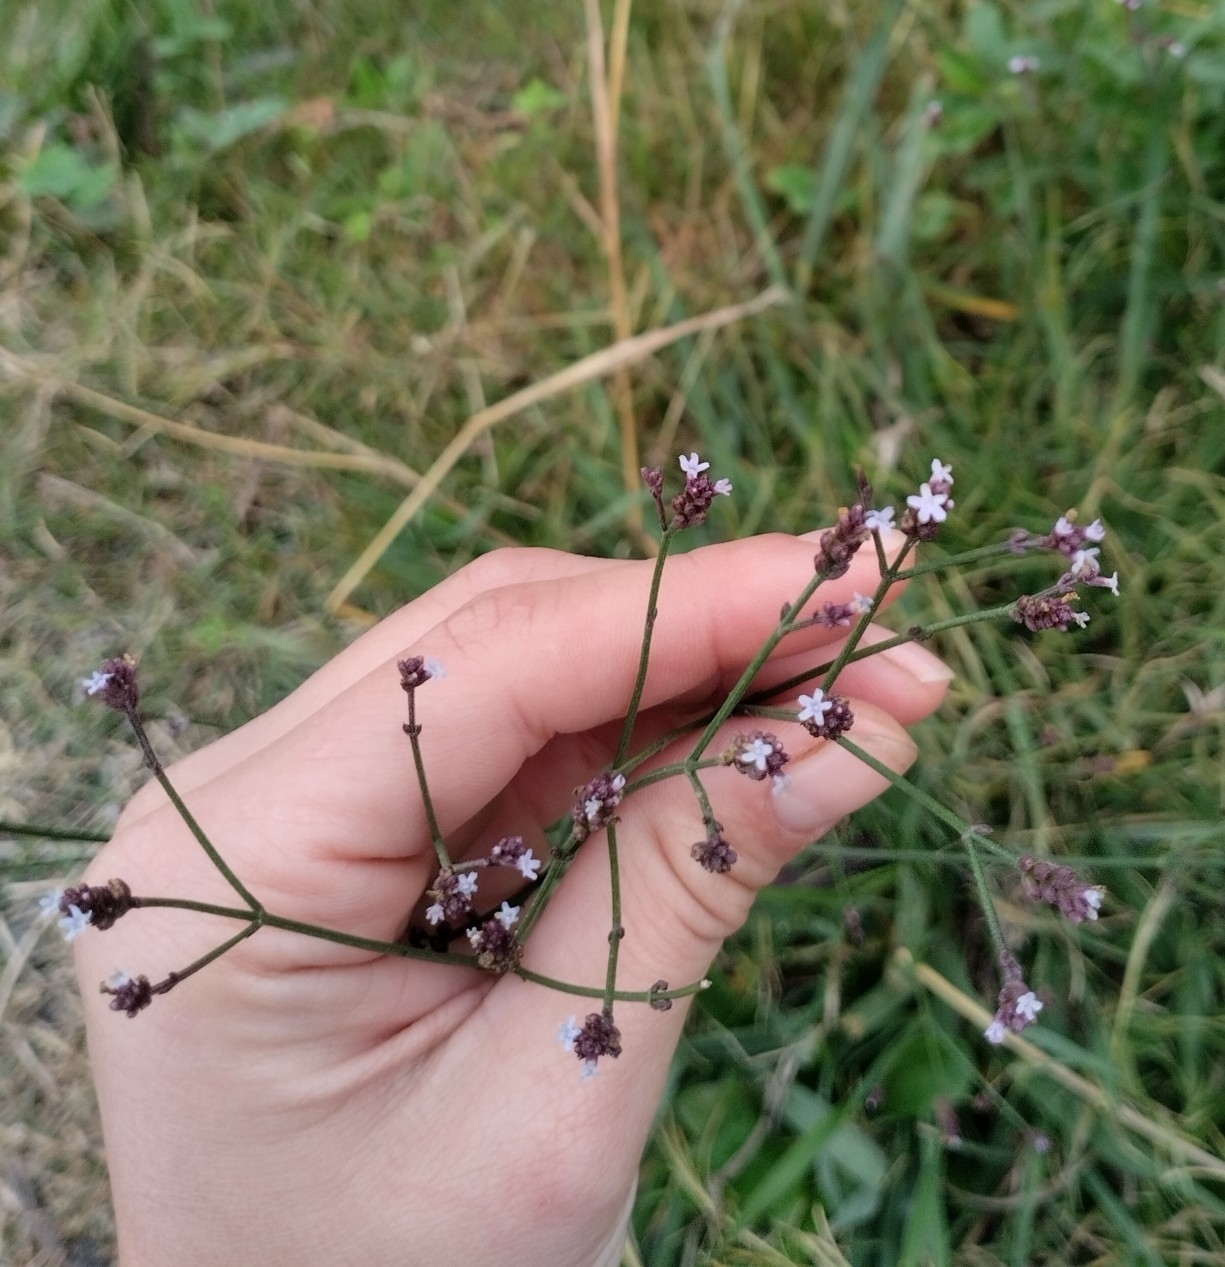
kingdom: Plantae
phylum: Tracheophyta
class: Magnoliopsida
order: Lamiales
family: Verbenaceae
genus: Verbena
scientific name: Verbena montevidensis
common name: Uruguayan vervain
